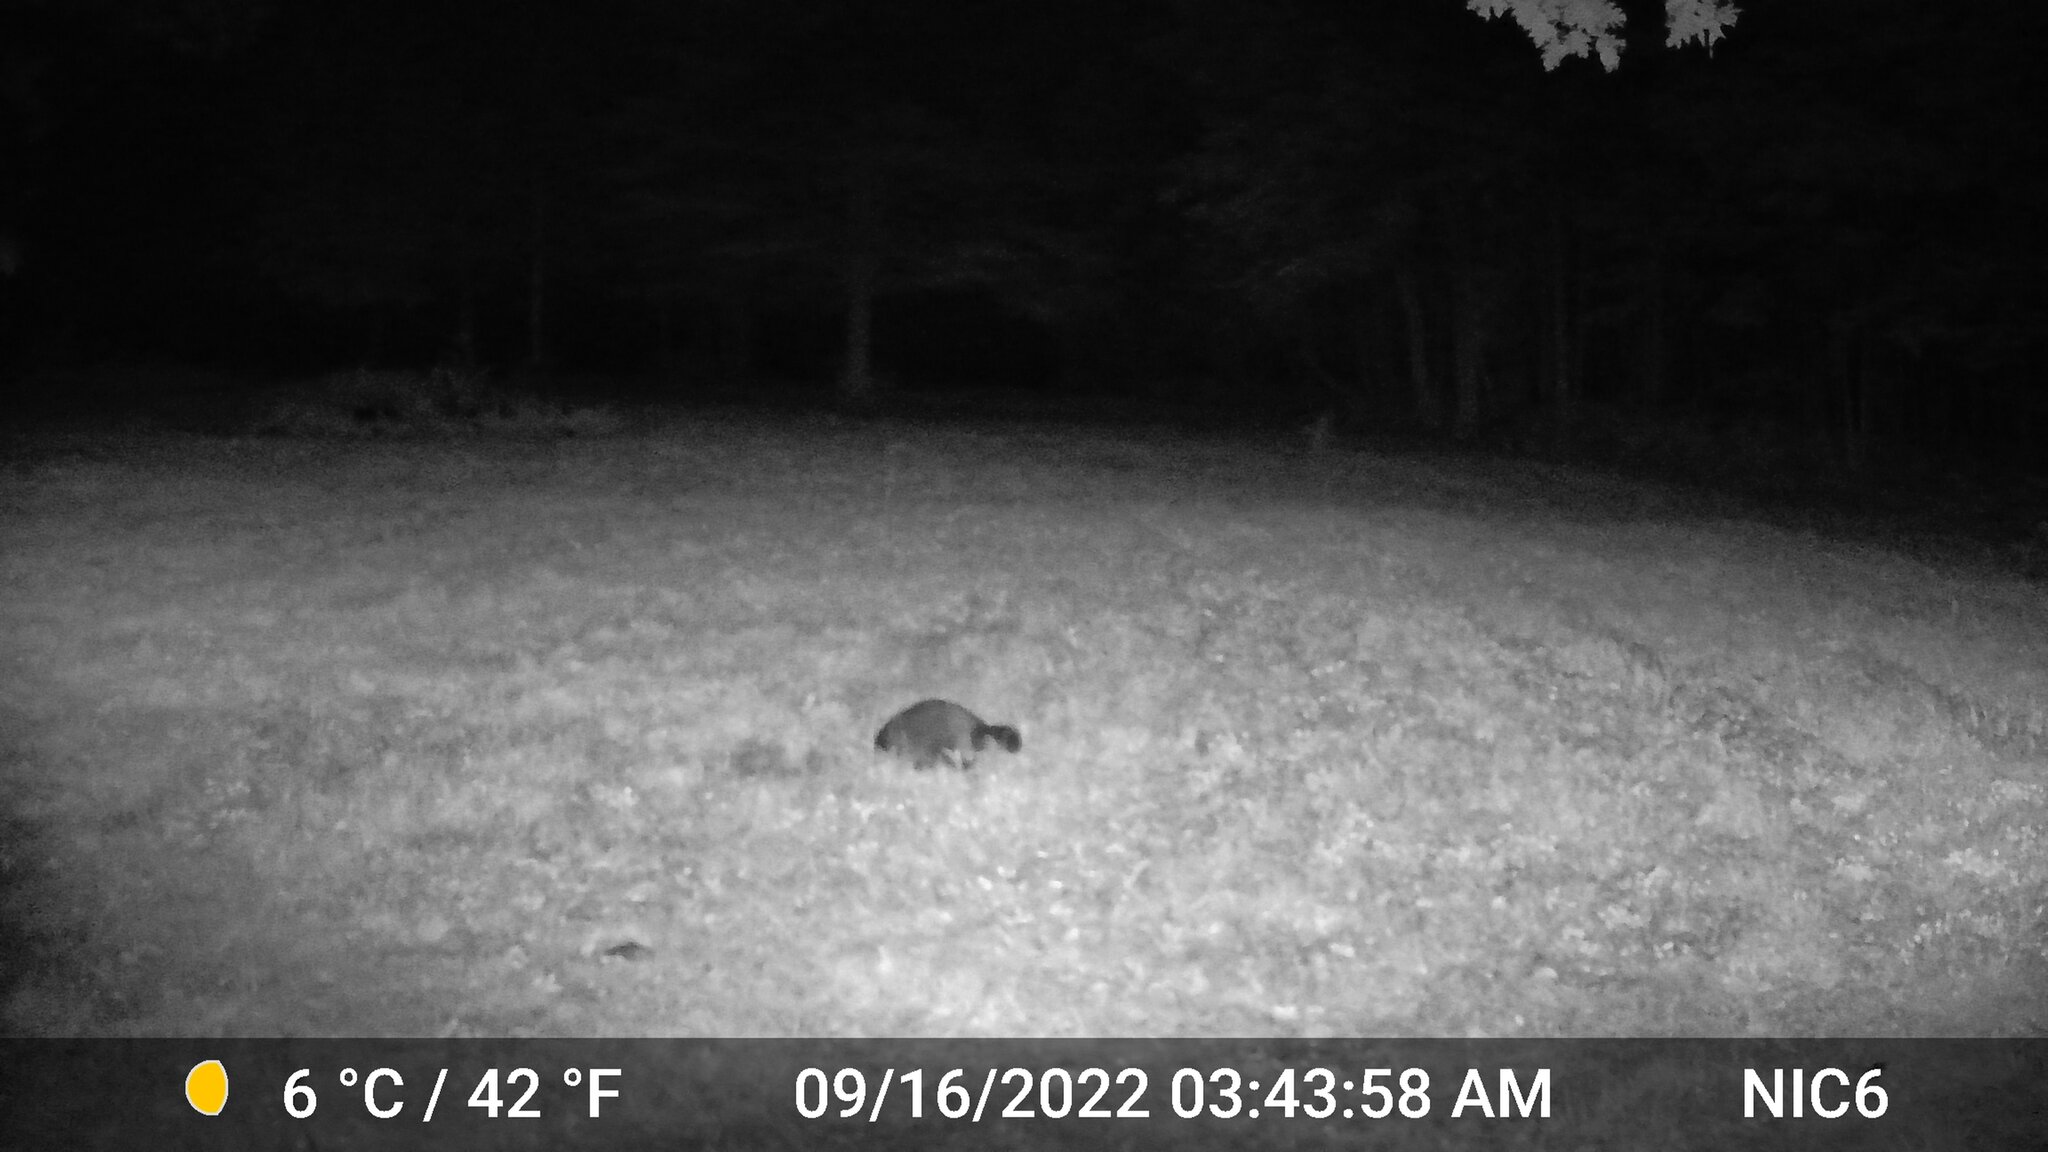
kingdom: Animalia
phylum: Chordata
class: Mammalia
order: Carnivora
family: Procyonidae
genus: Procyon
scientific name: Procyon lotor
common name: Raccoon
